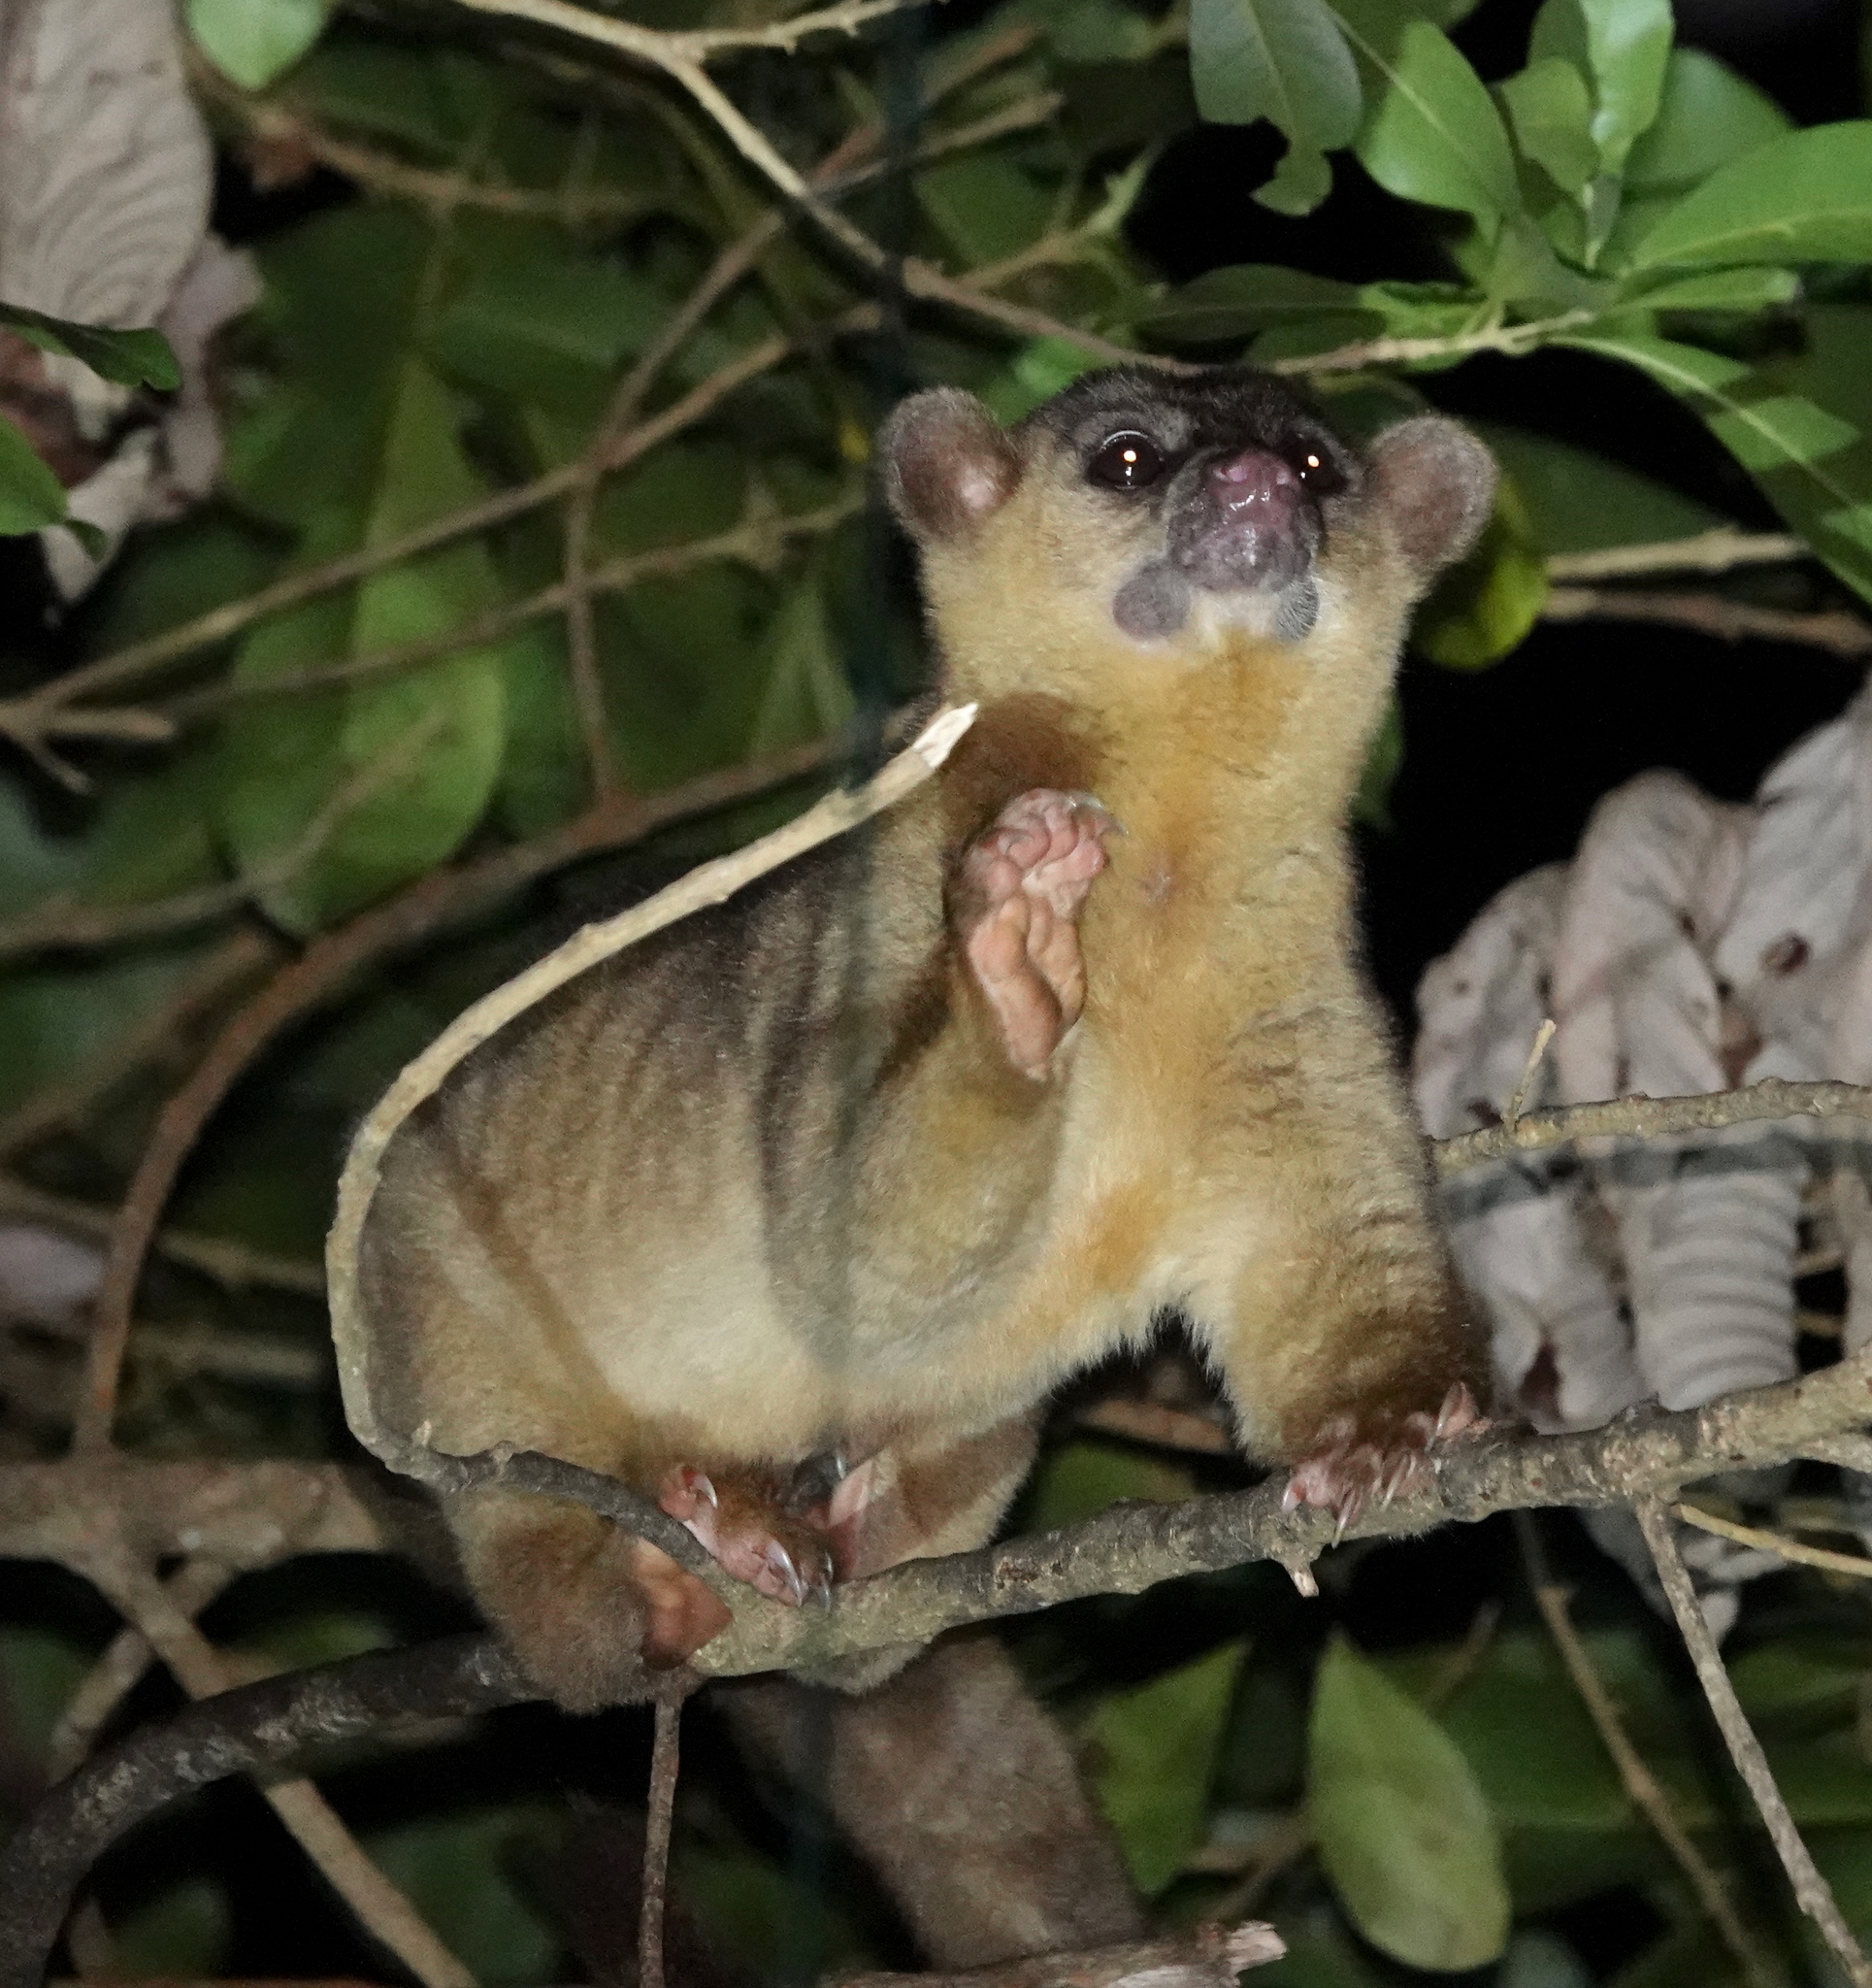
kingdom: Animalia
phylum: Chordata
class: Mammalia
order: Carnivora
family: Procyonidae
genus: Potos
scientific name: Potos flavus
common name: Kinkajou
